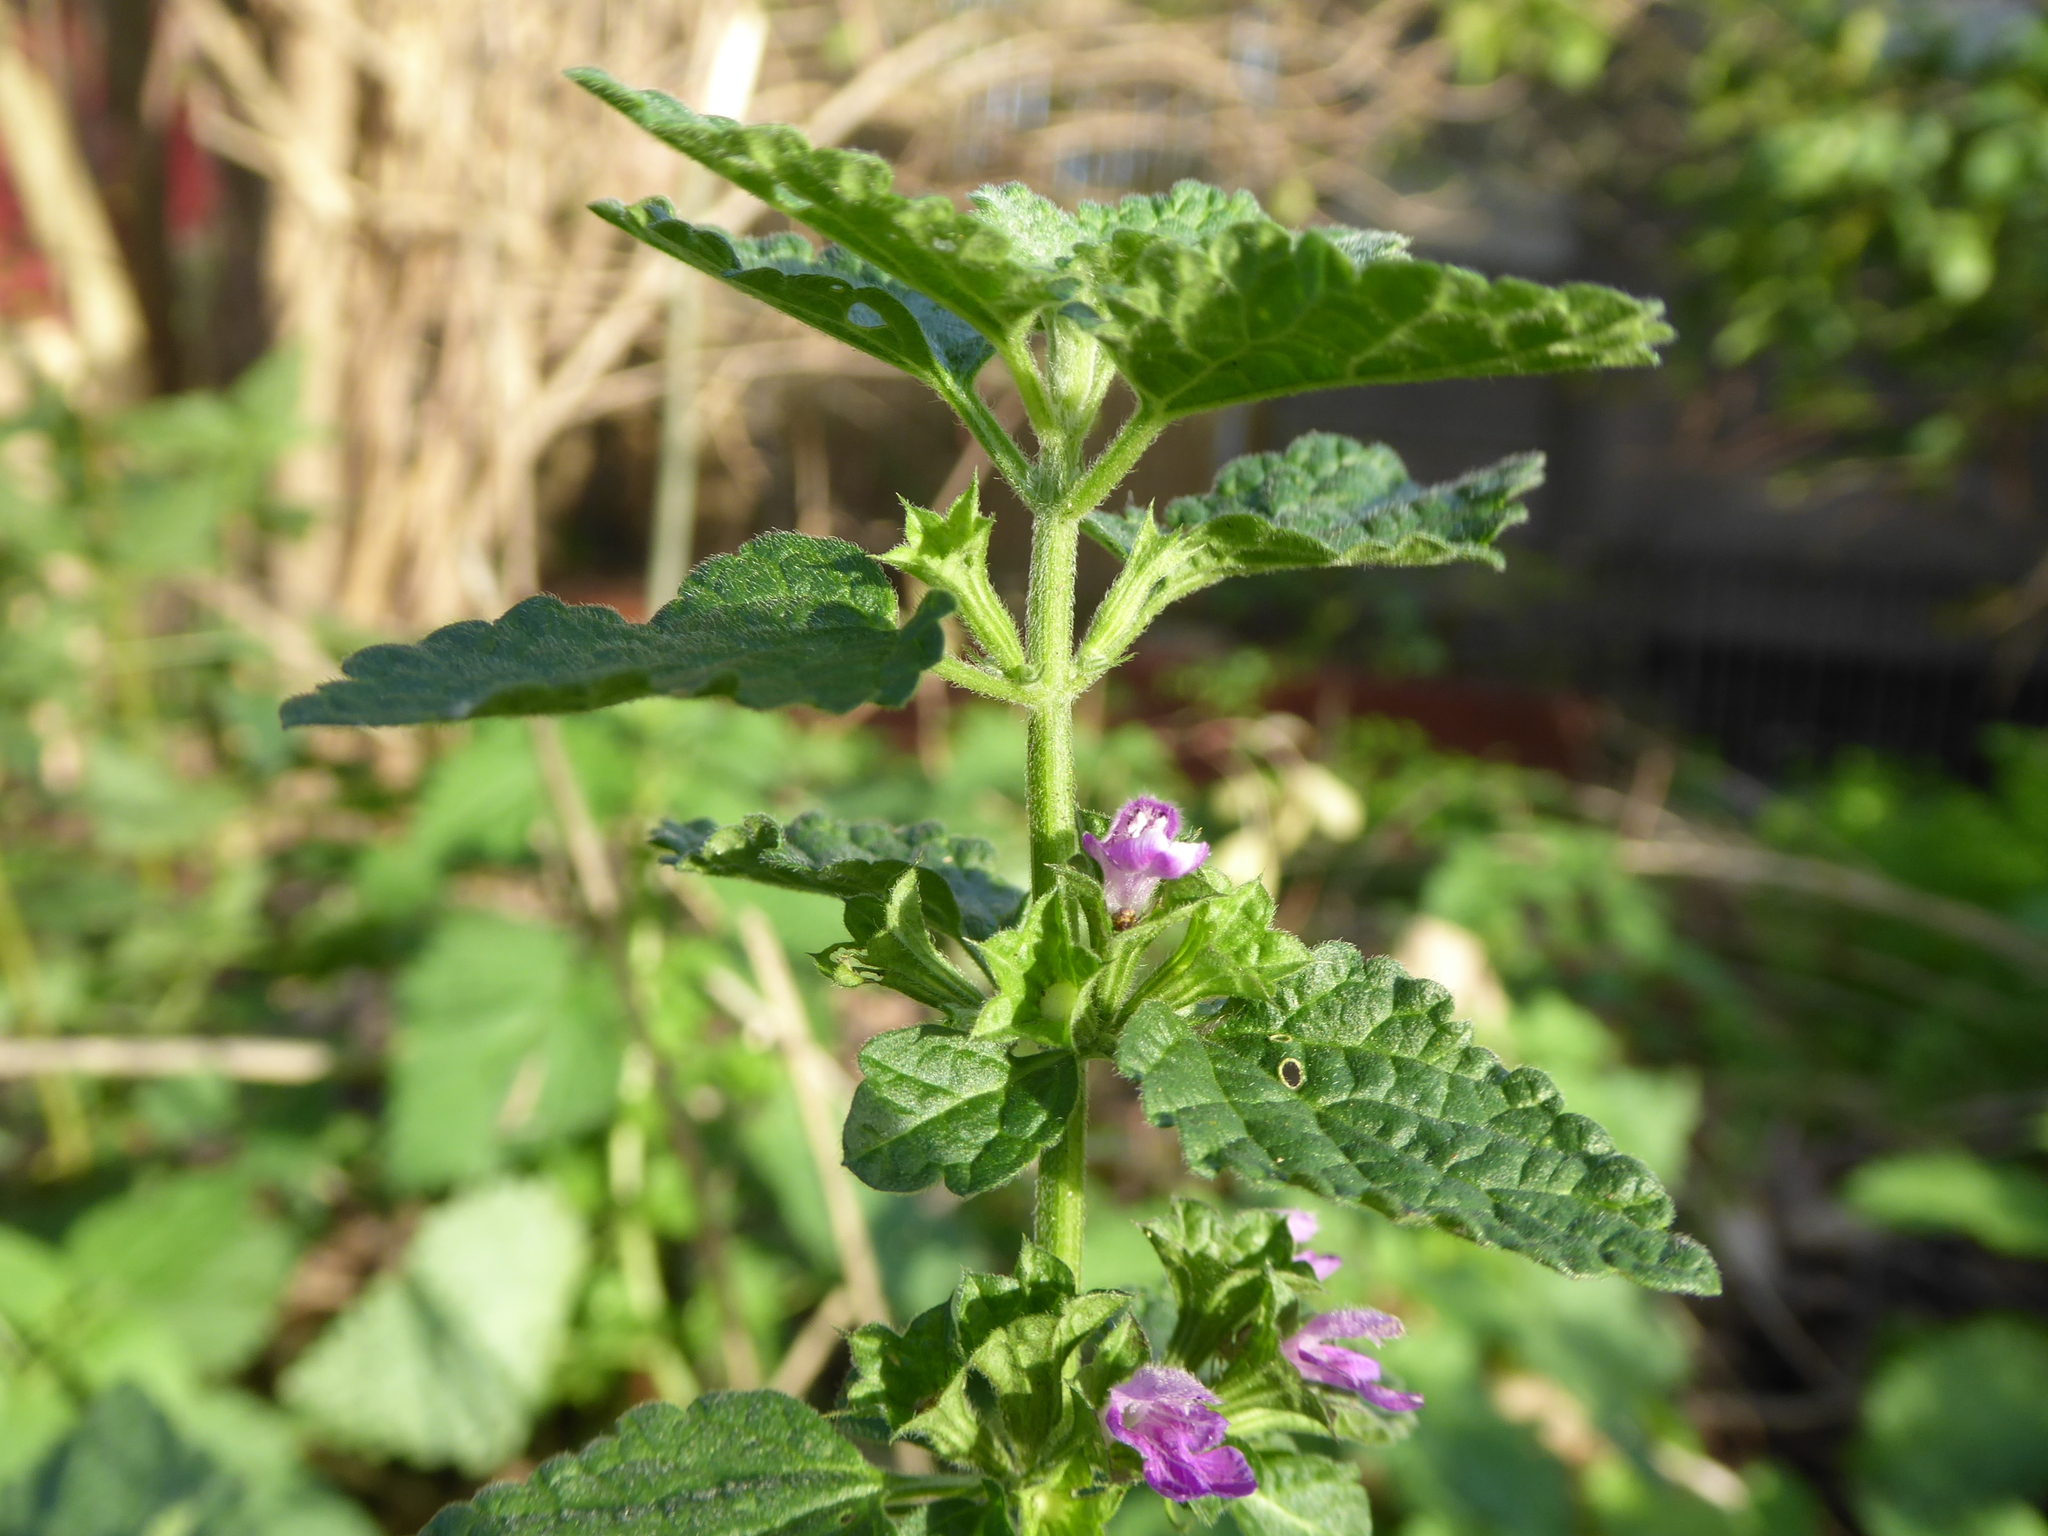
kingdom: Plantae
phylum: Tracheophyta
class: Magnoliopsida
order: Lamiales
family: Lamiaceae
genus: Ballota
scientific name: Ballota nigra
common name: Black horehound
